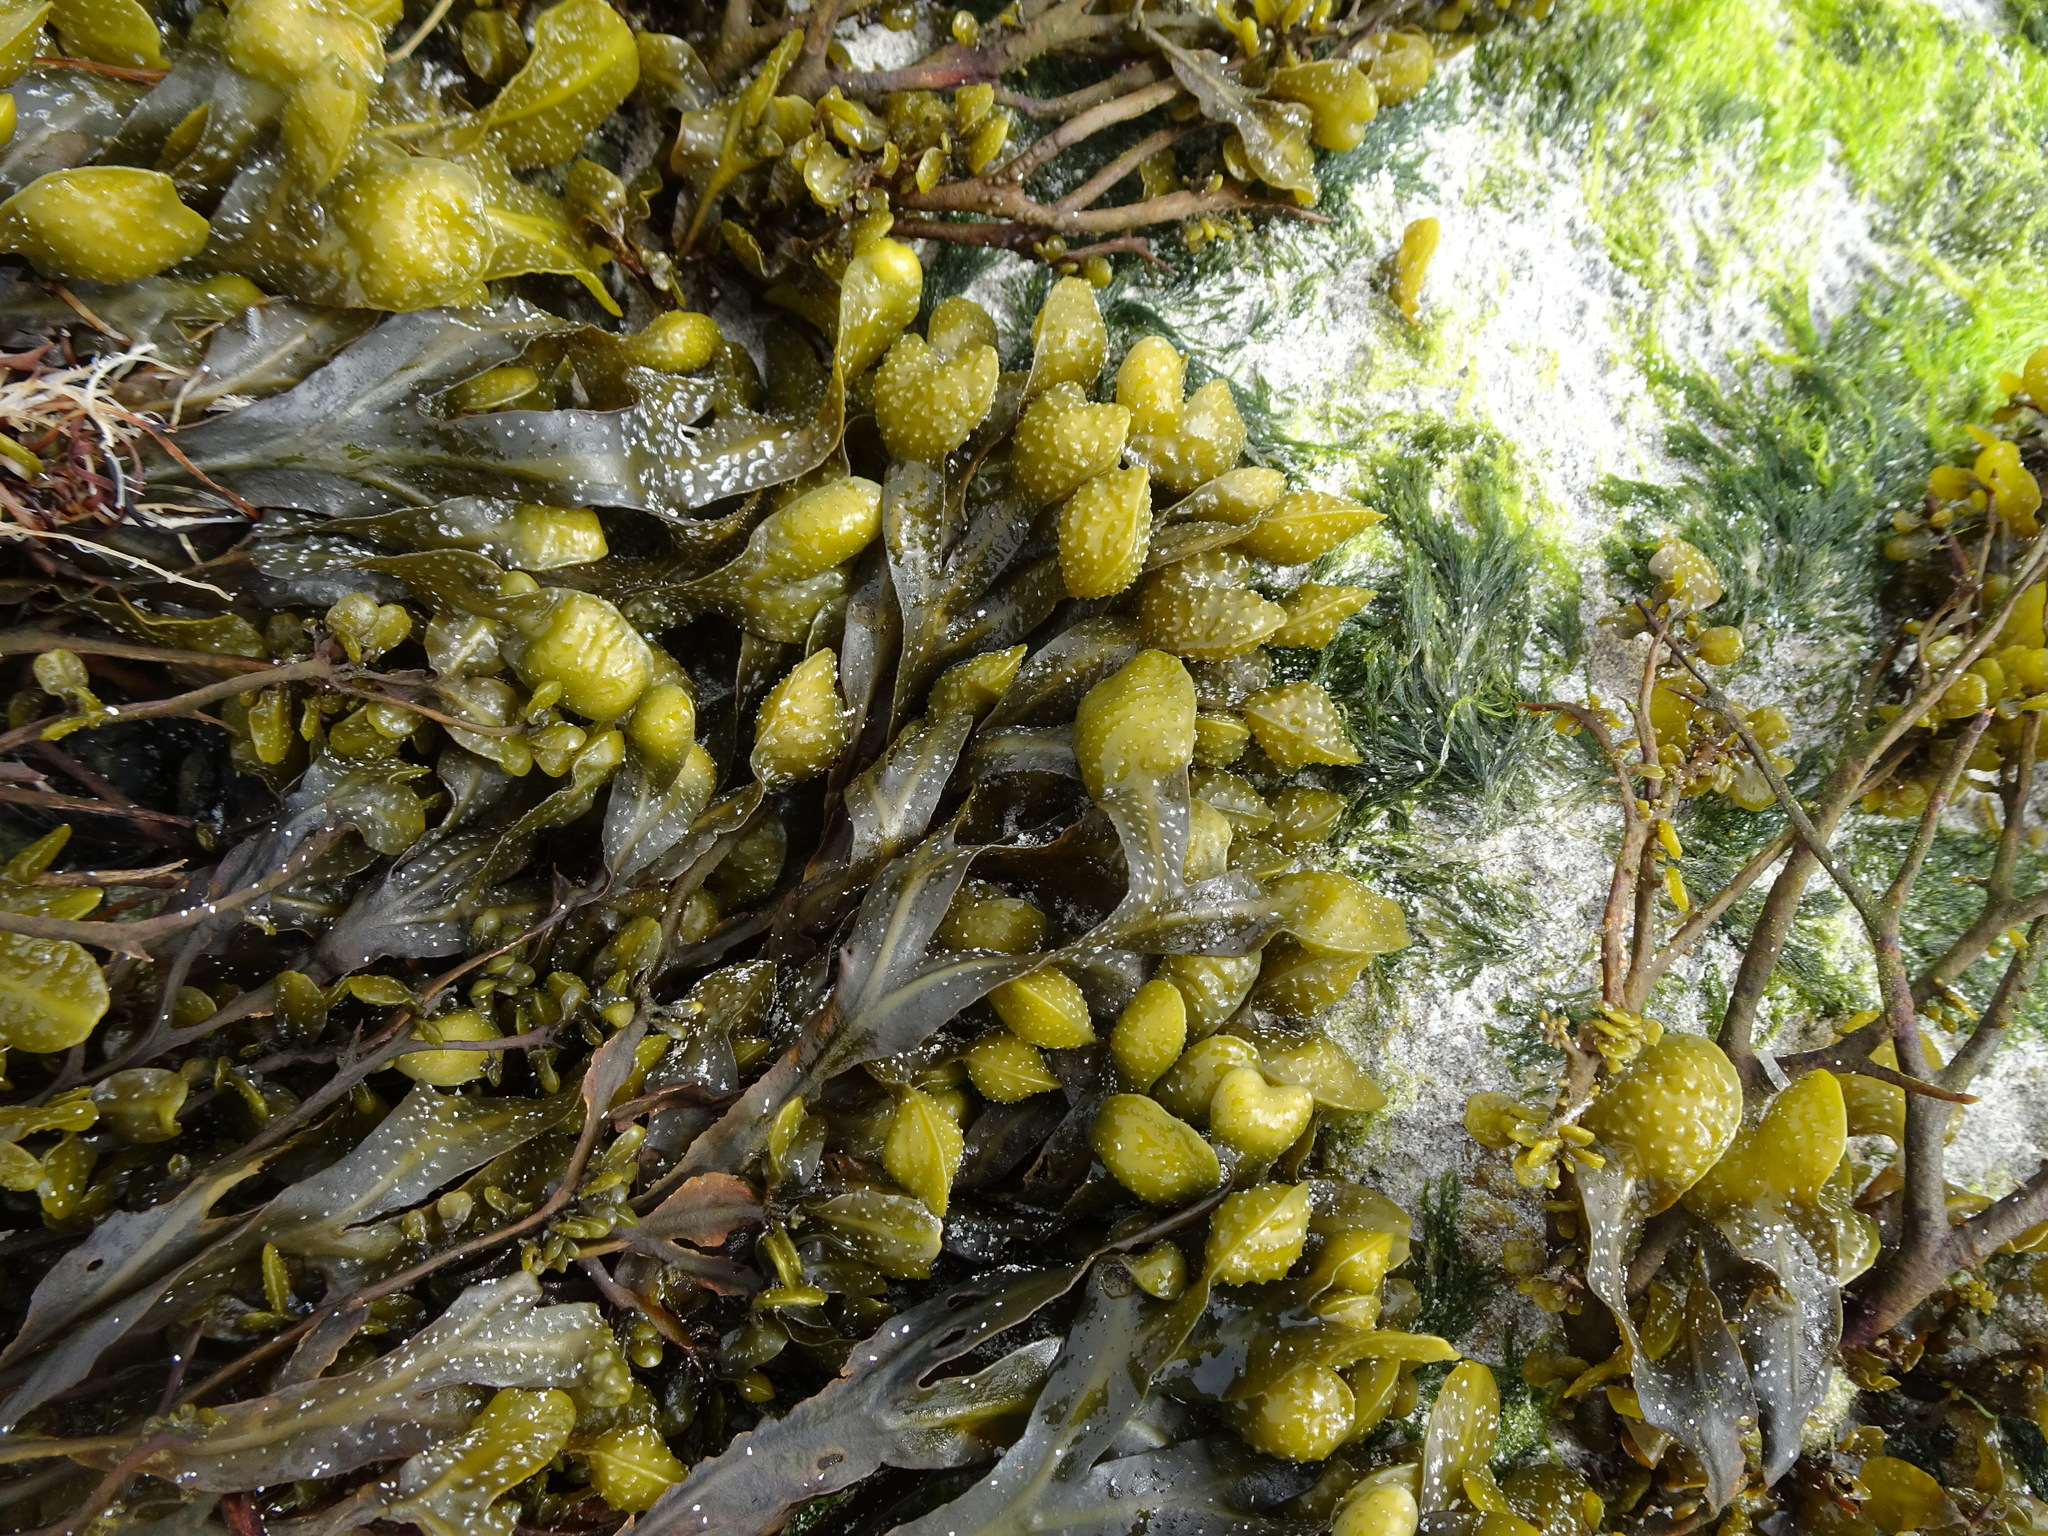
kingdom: Chromista
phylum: Ochrophyta
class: Phaeophyceae
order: Fucales
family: Fucaceae
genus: Fucus
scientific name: Fucus spiralis
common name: Spiral wrack
